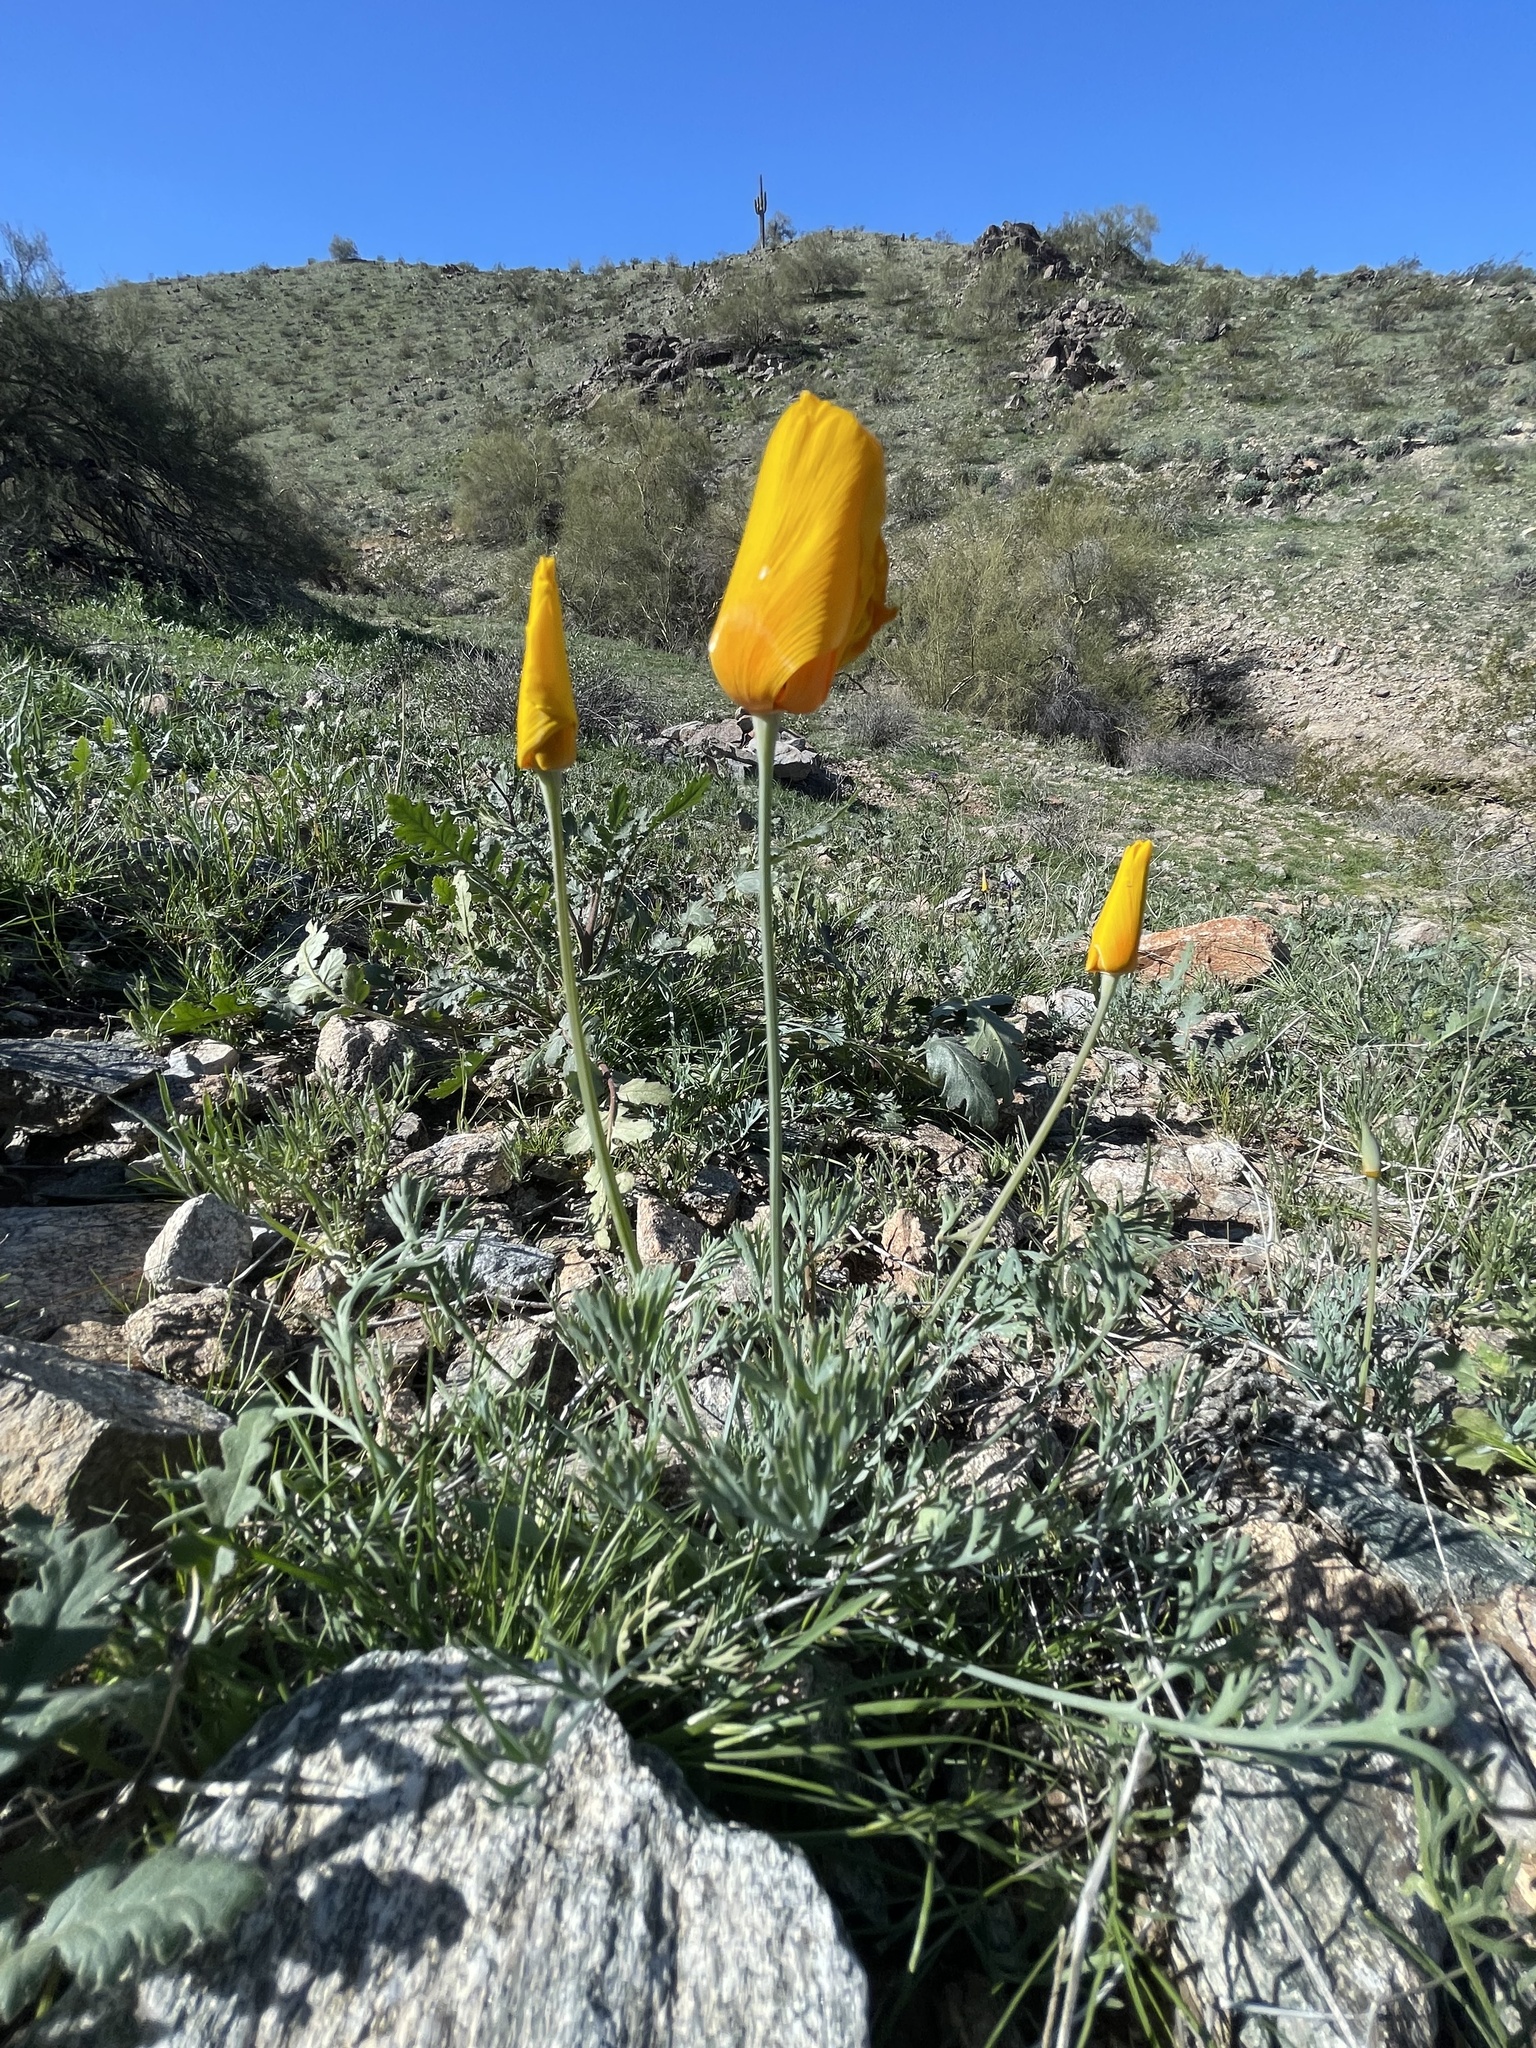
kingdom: Plantae
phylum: Tracheophyta
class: Magnoliopsida
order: Ranunculales
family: Papaveraceae
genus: Eschscholzia
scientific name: Eschscholzia californica
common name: California poppy
